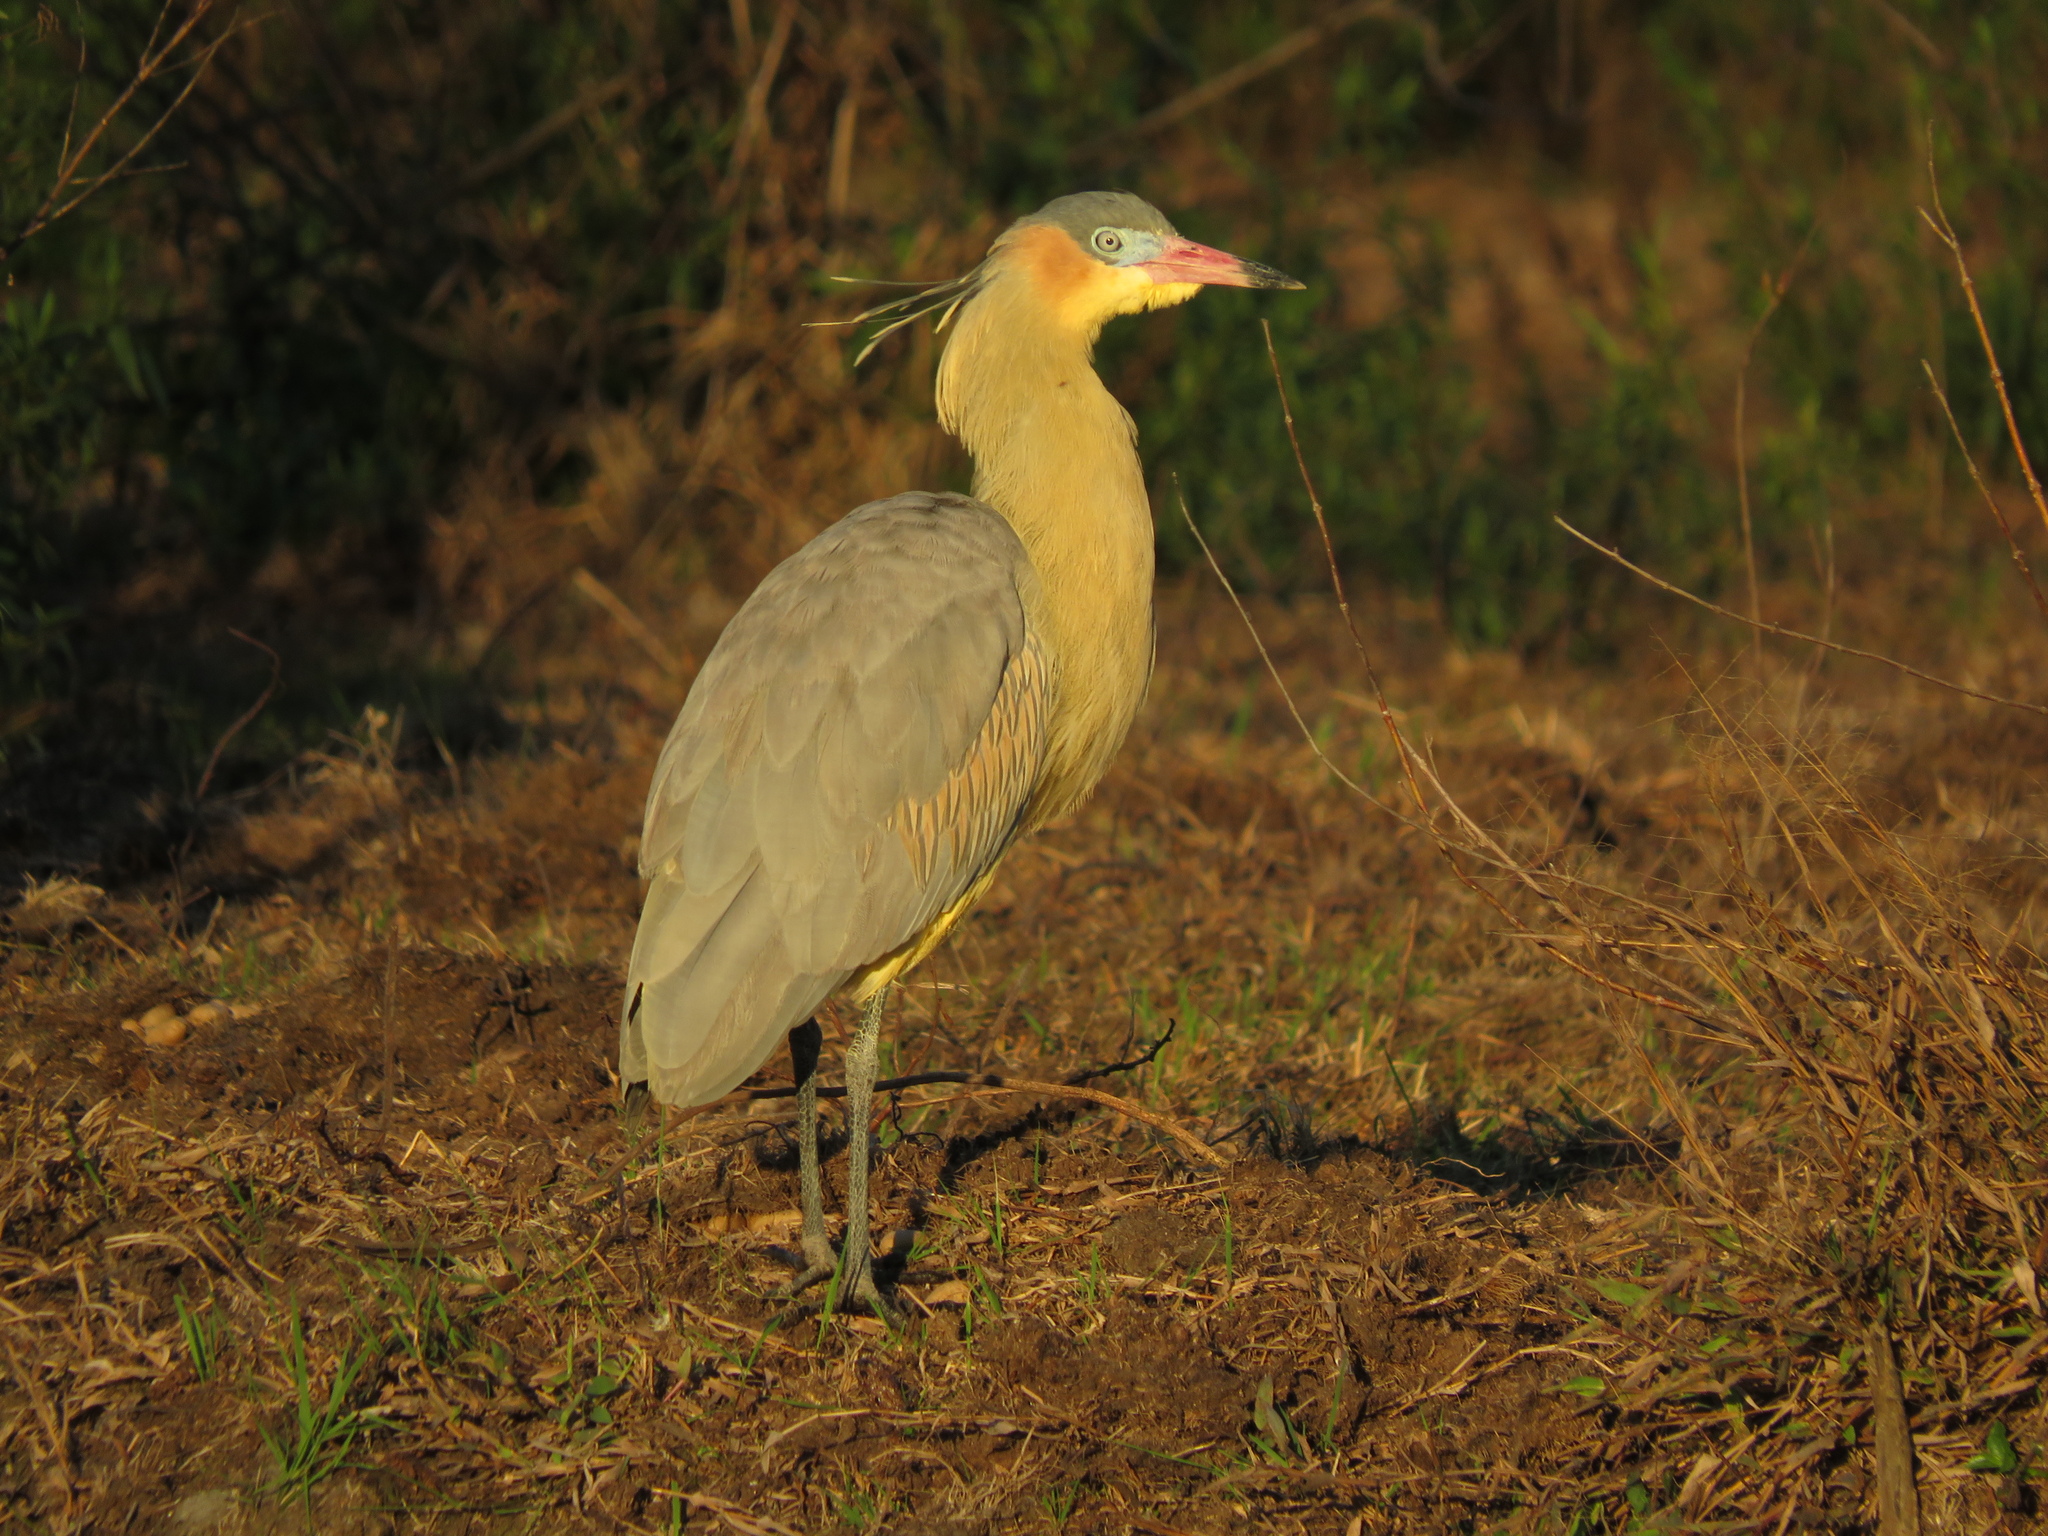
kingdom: Animalia
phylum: Chordata
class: Aves
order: Pelecaniformes
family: Ardeidae
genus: Syrigma
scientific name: Syrigma sibilatrix
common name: Whistling heron
